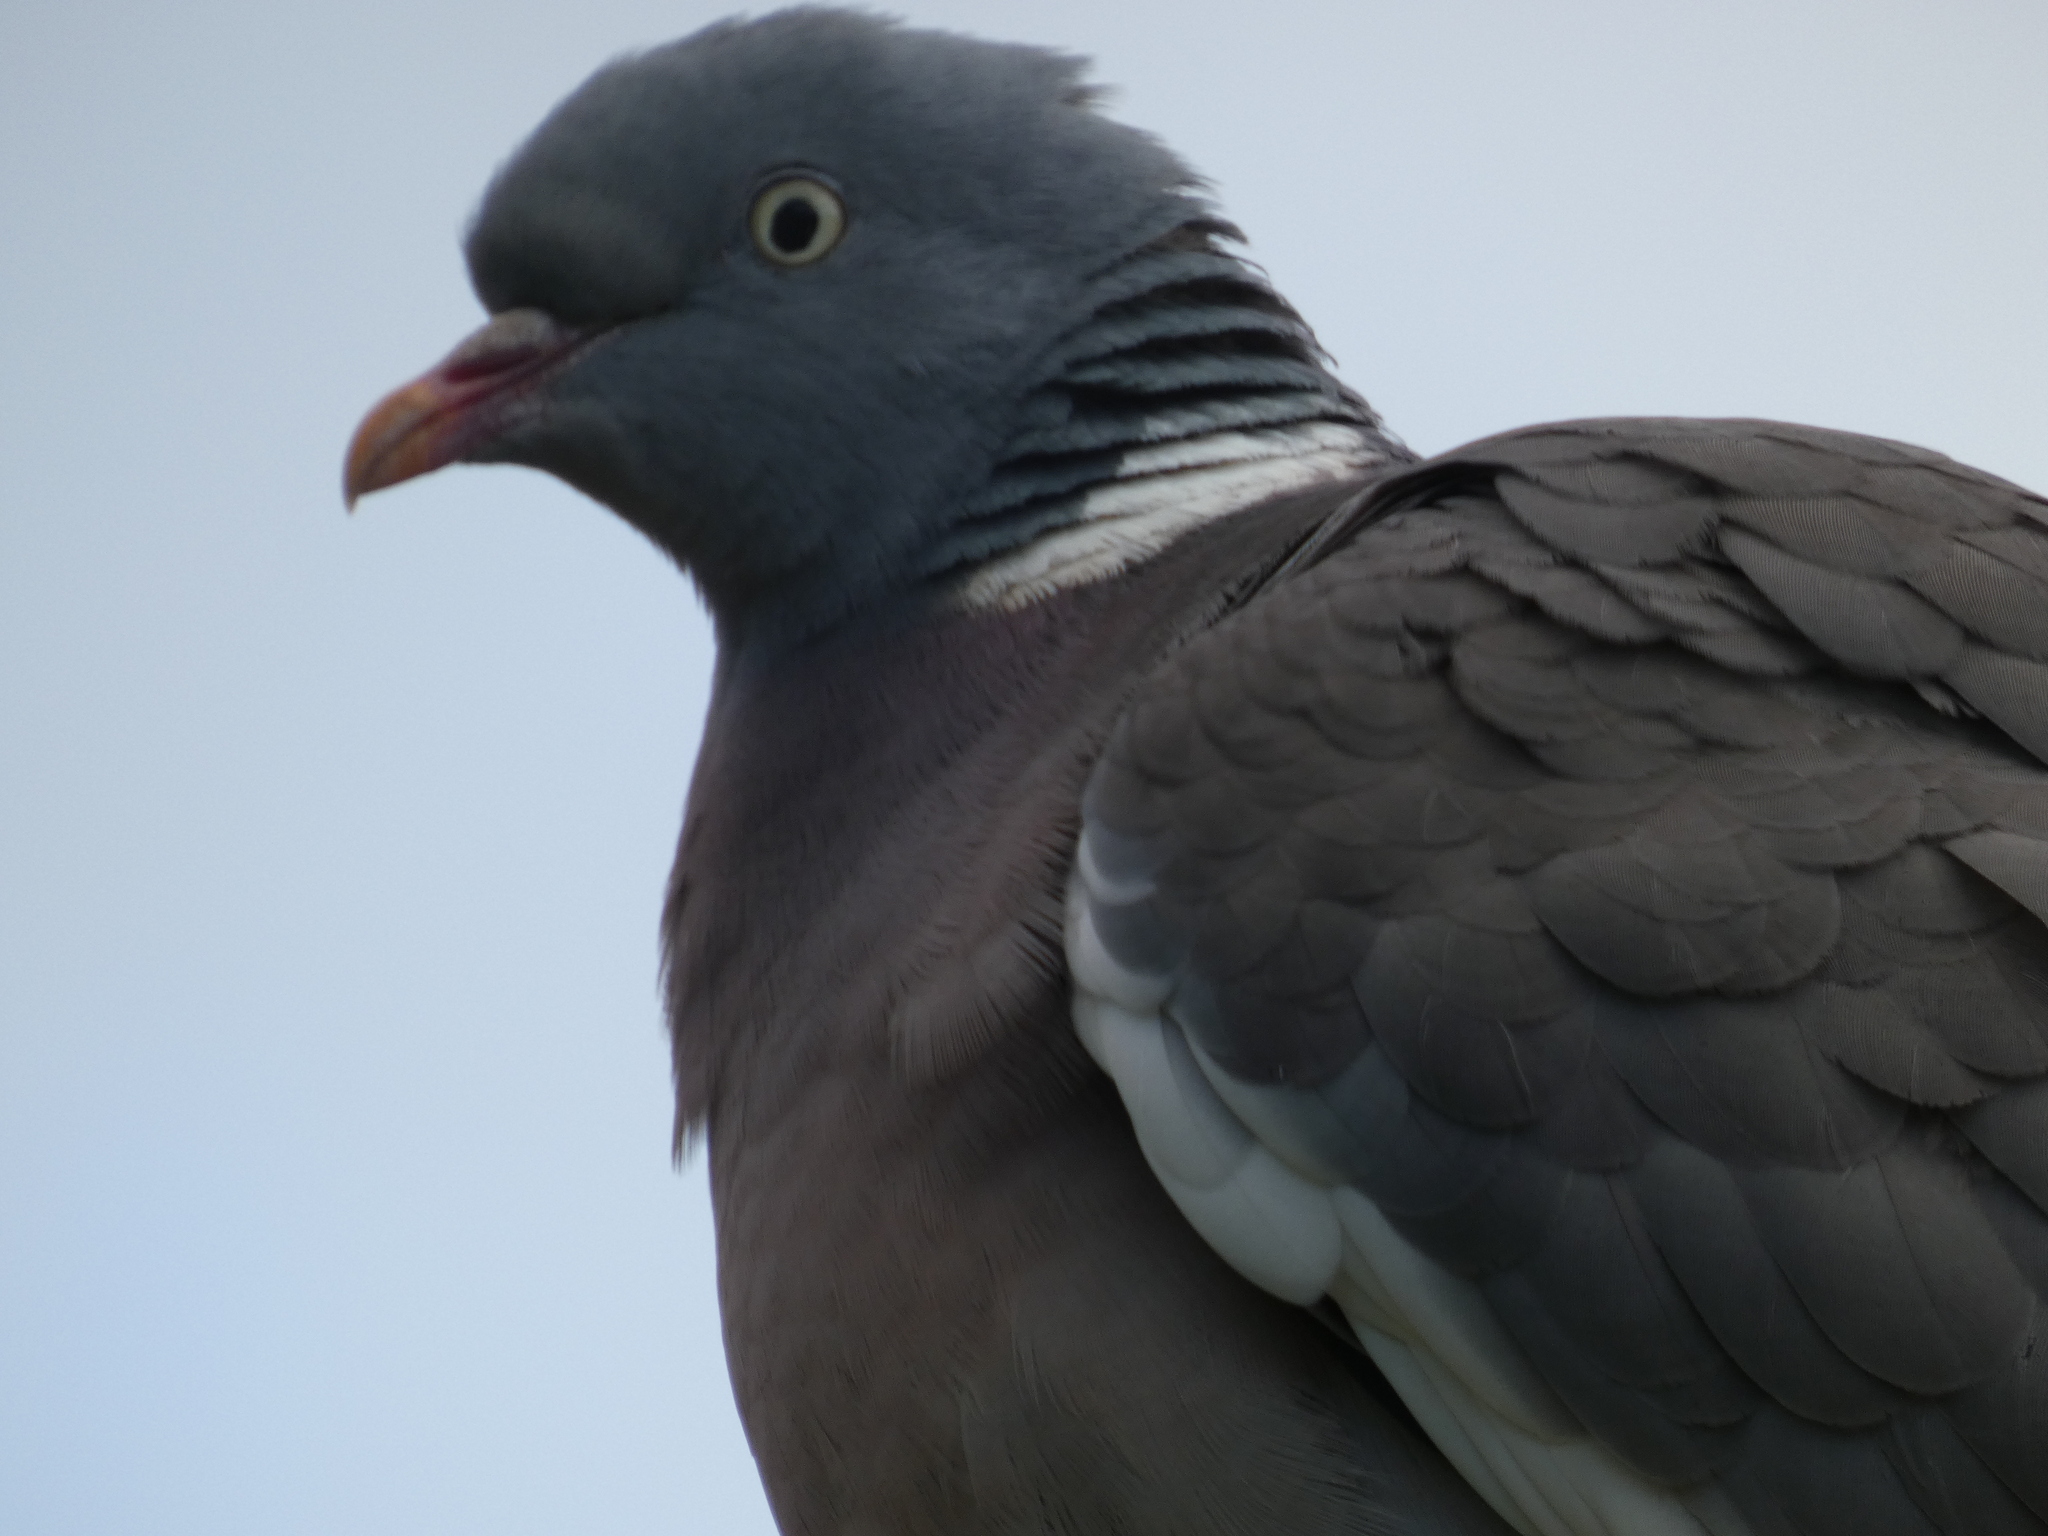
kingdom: Animalia
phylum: Chordata
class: Aves
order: Columbiformes
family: Columbidae
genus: Columba
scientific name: Columba palumbus
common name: Common wood pigeon
